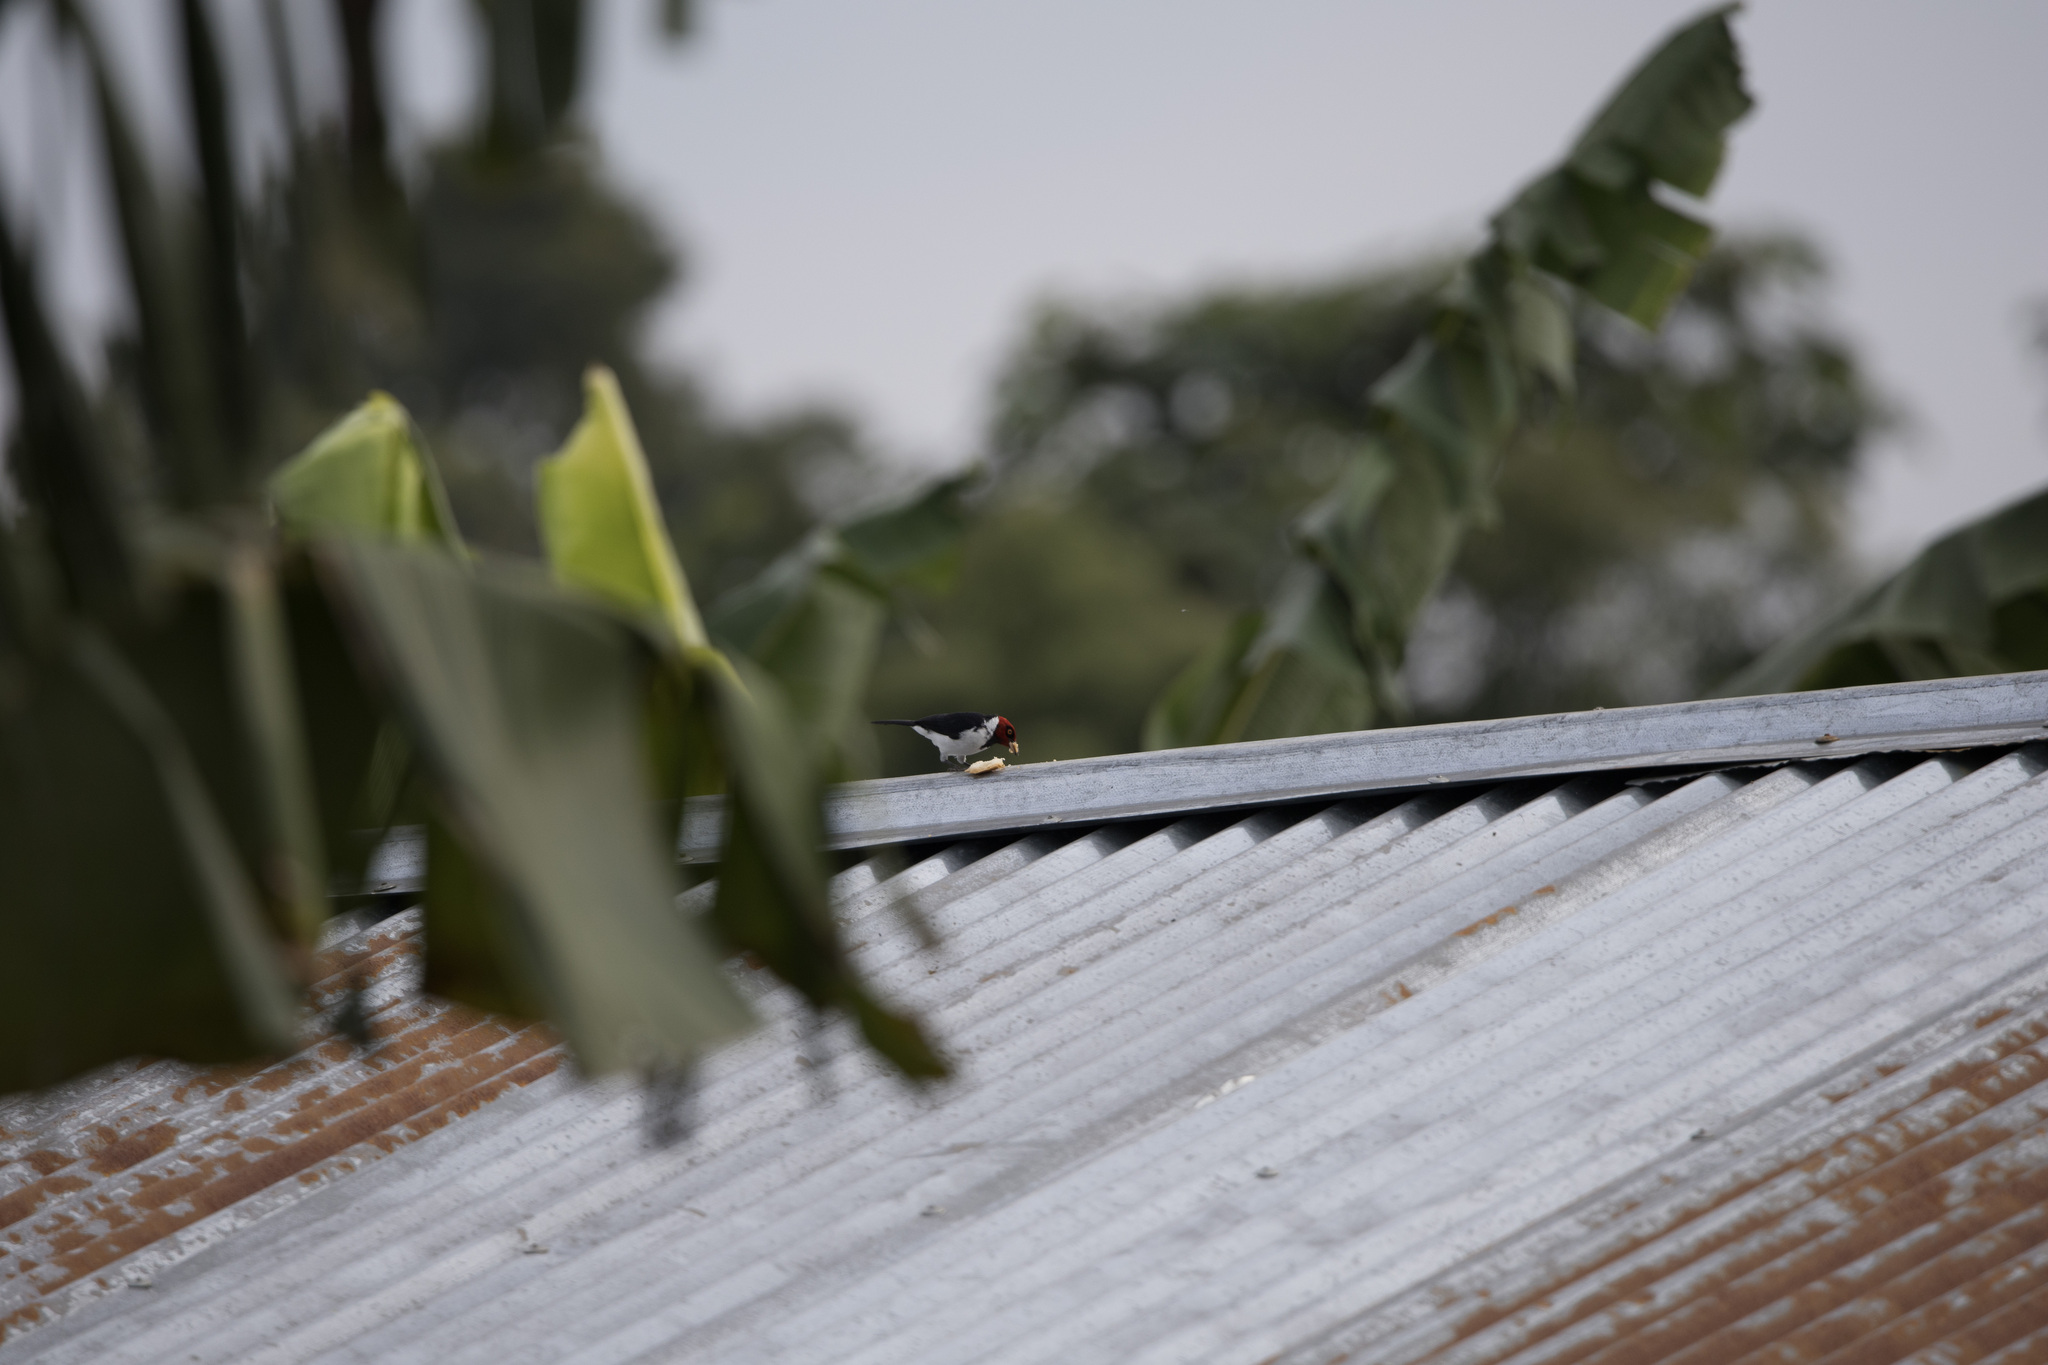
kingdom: Animalia
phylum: Chordata
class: Aves
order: Passeriformes
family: Thraupidae
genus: Paroaria
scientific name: Paroaria gularis
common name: Red-capped cardinal
